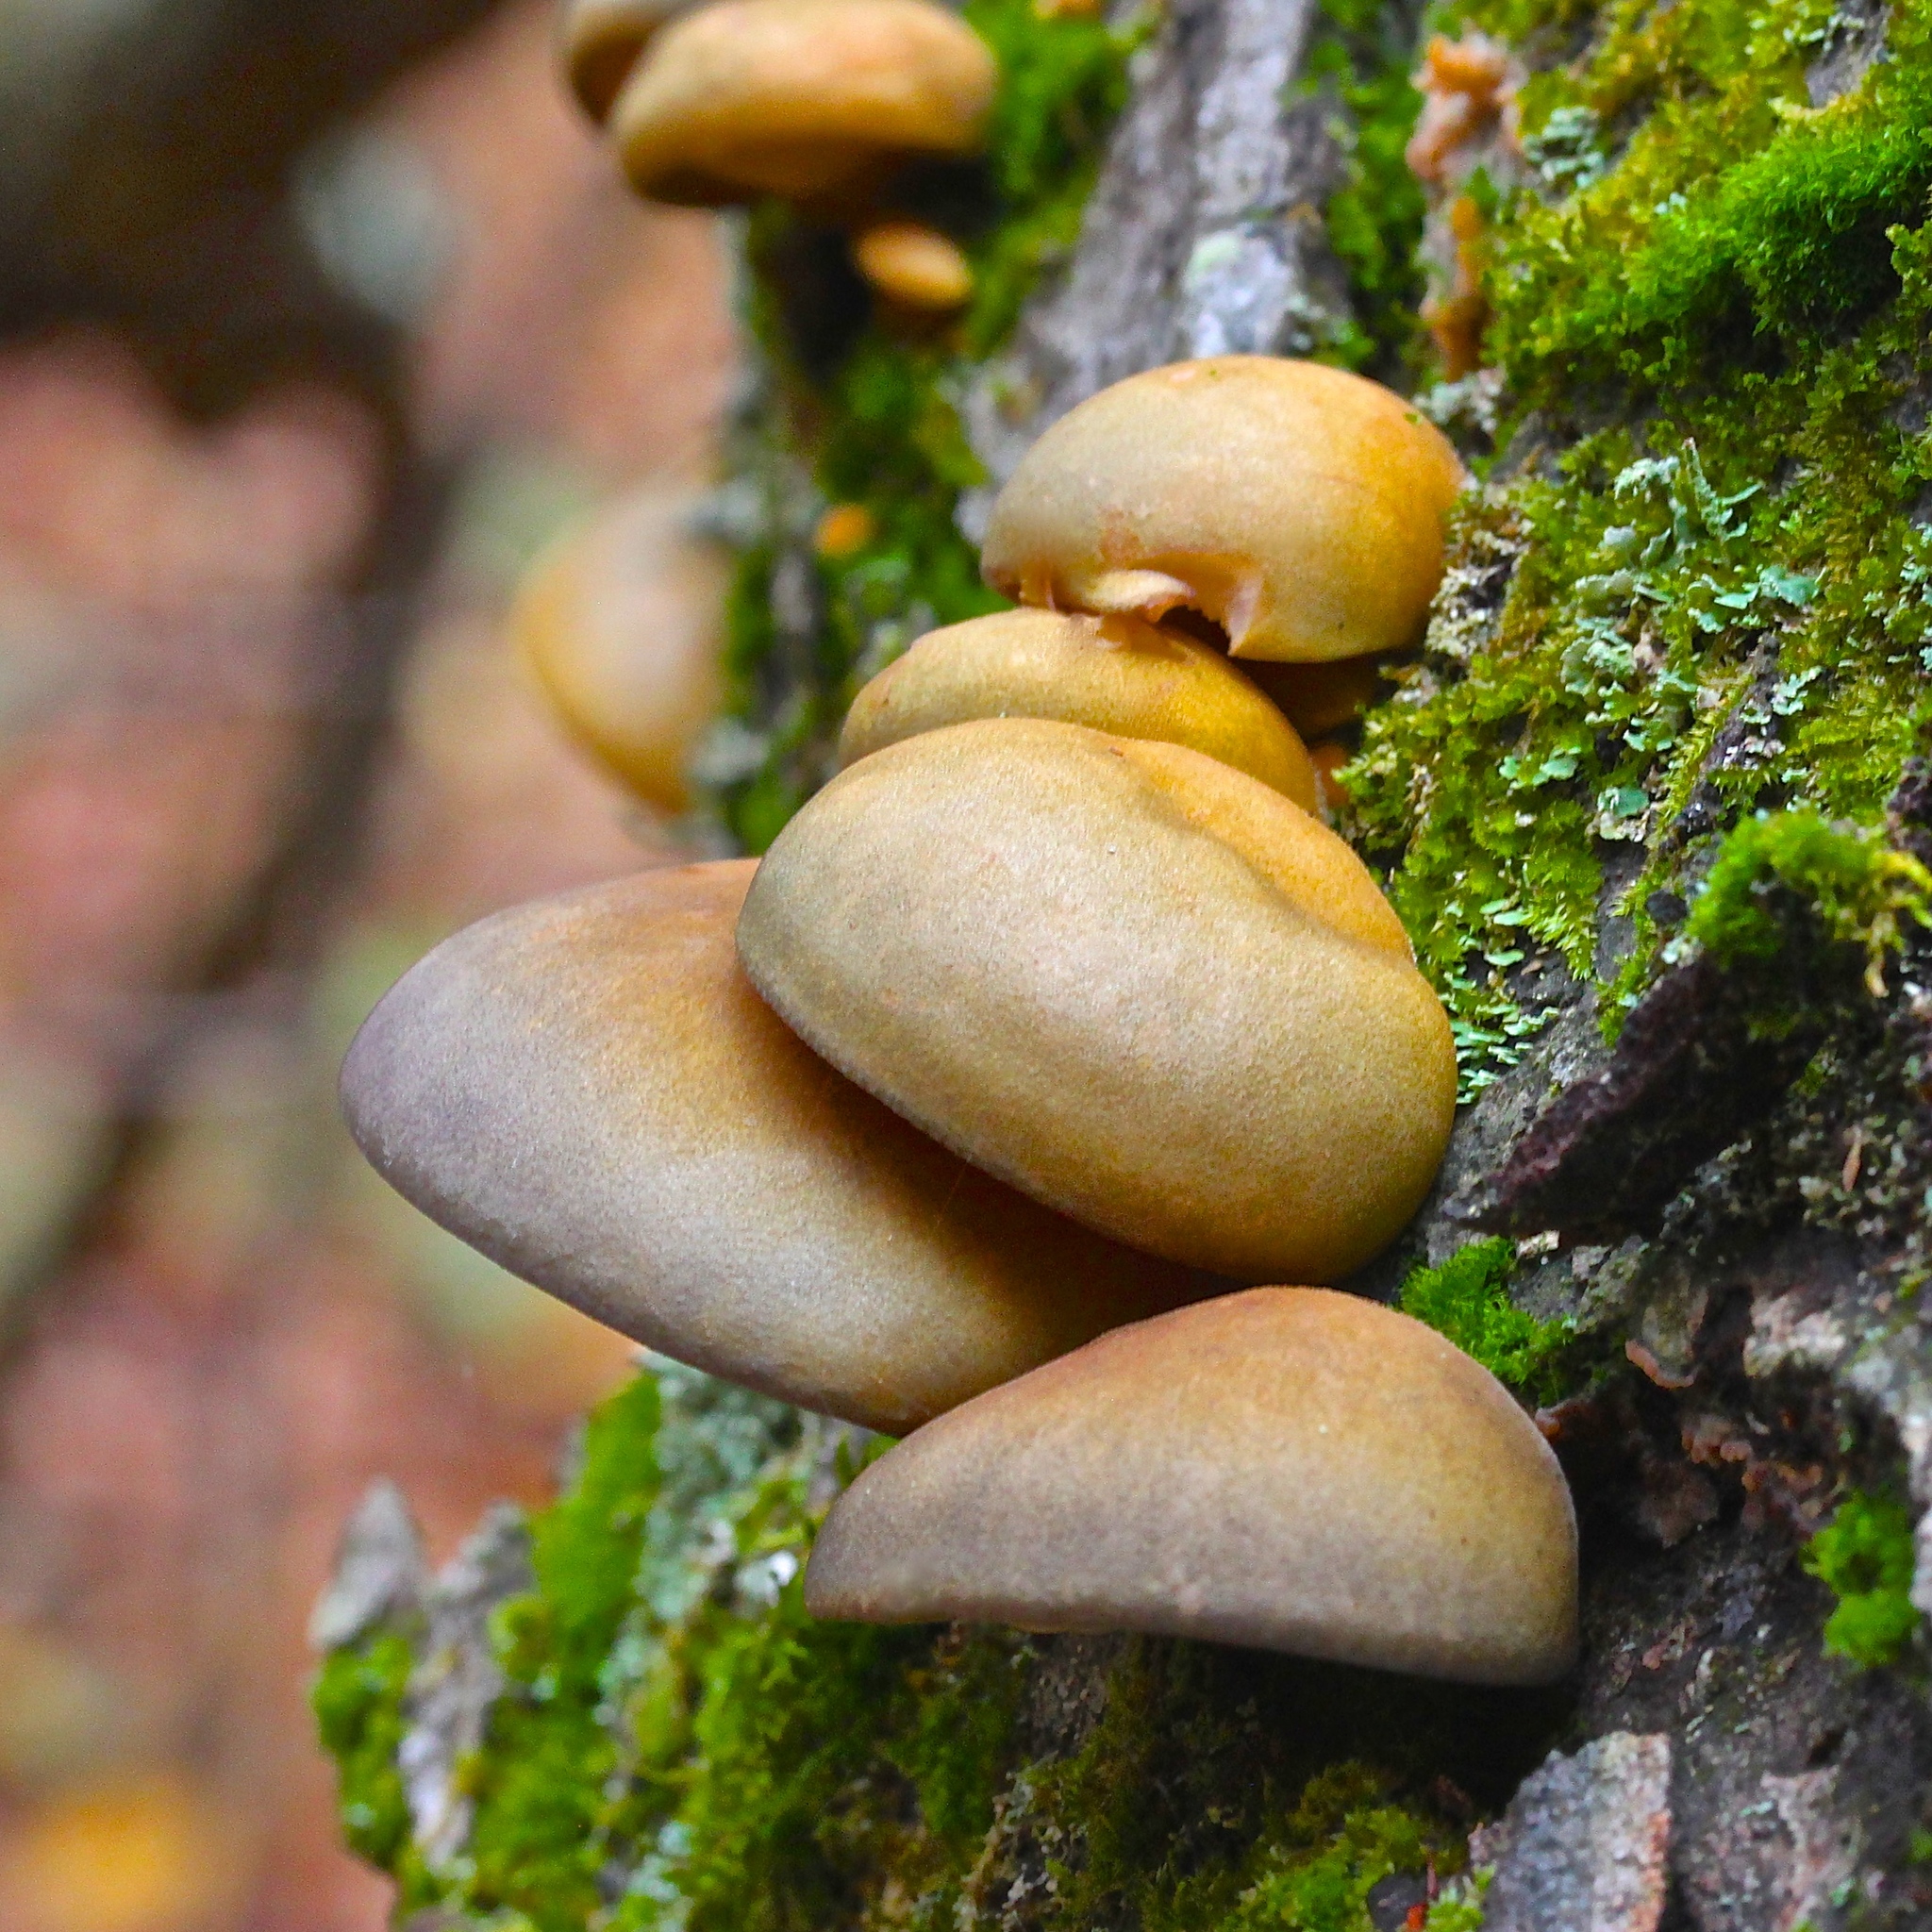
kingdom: Fungi
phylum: Basidiomycota
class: Agaricomycetes
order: Agaricales
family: Sarcomyxaceae
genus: Sarcomyxa
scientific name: Sarcomyxa serotina
